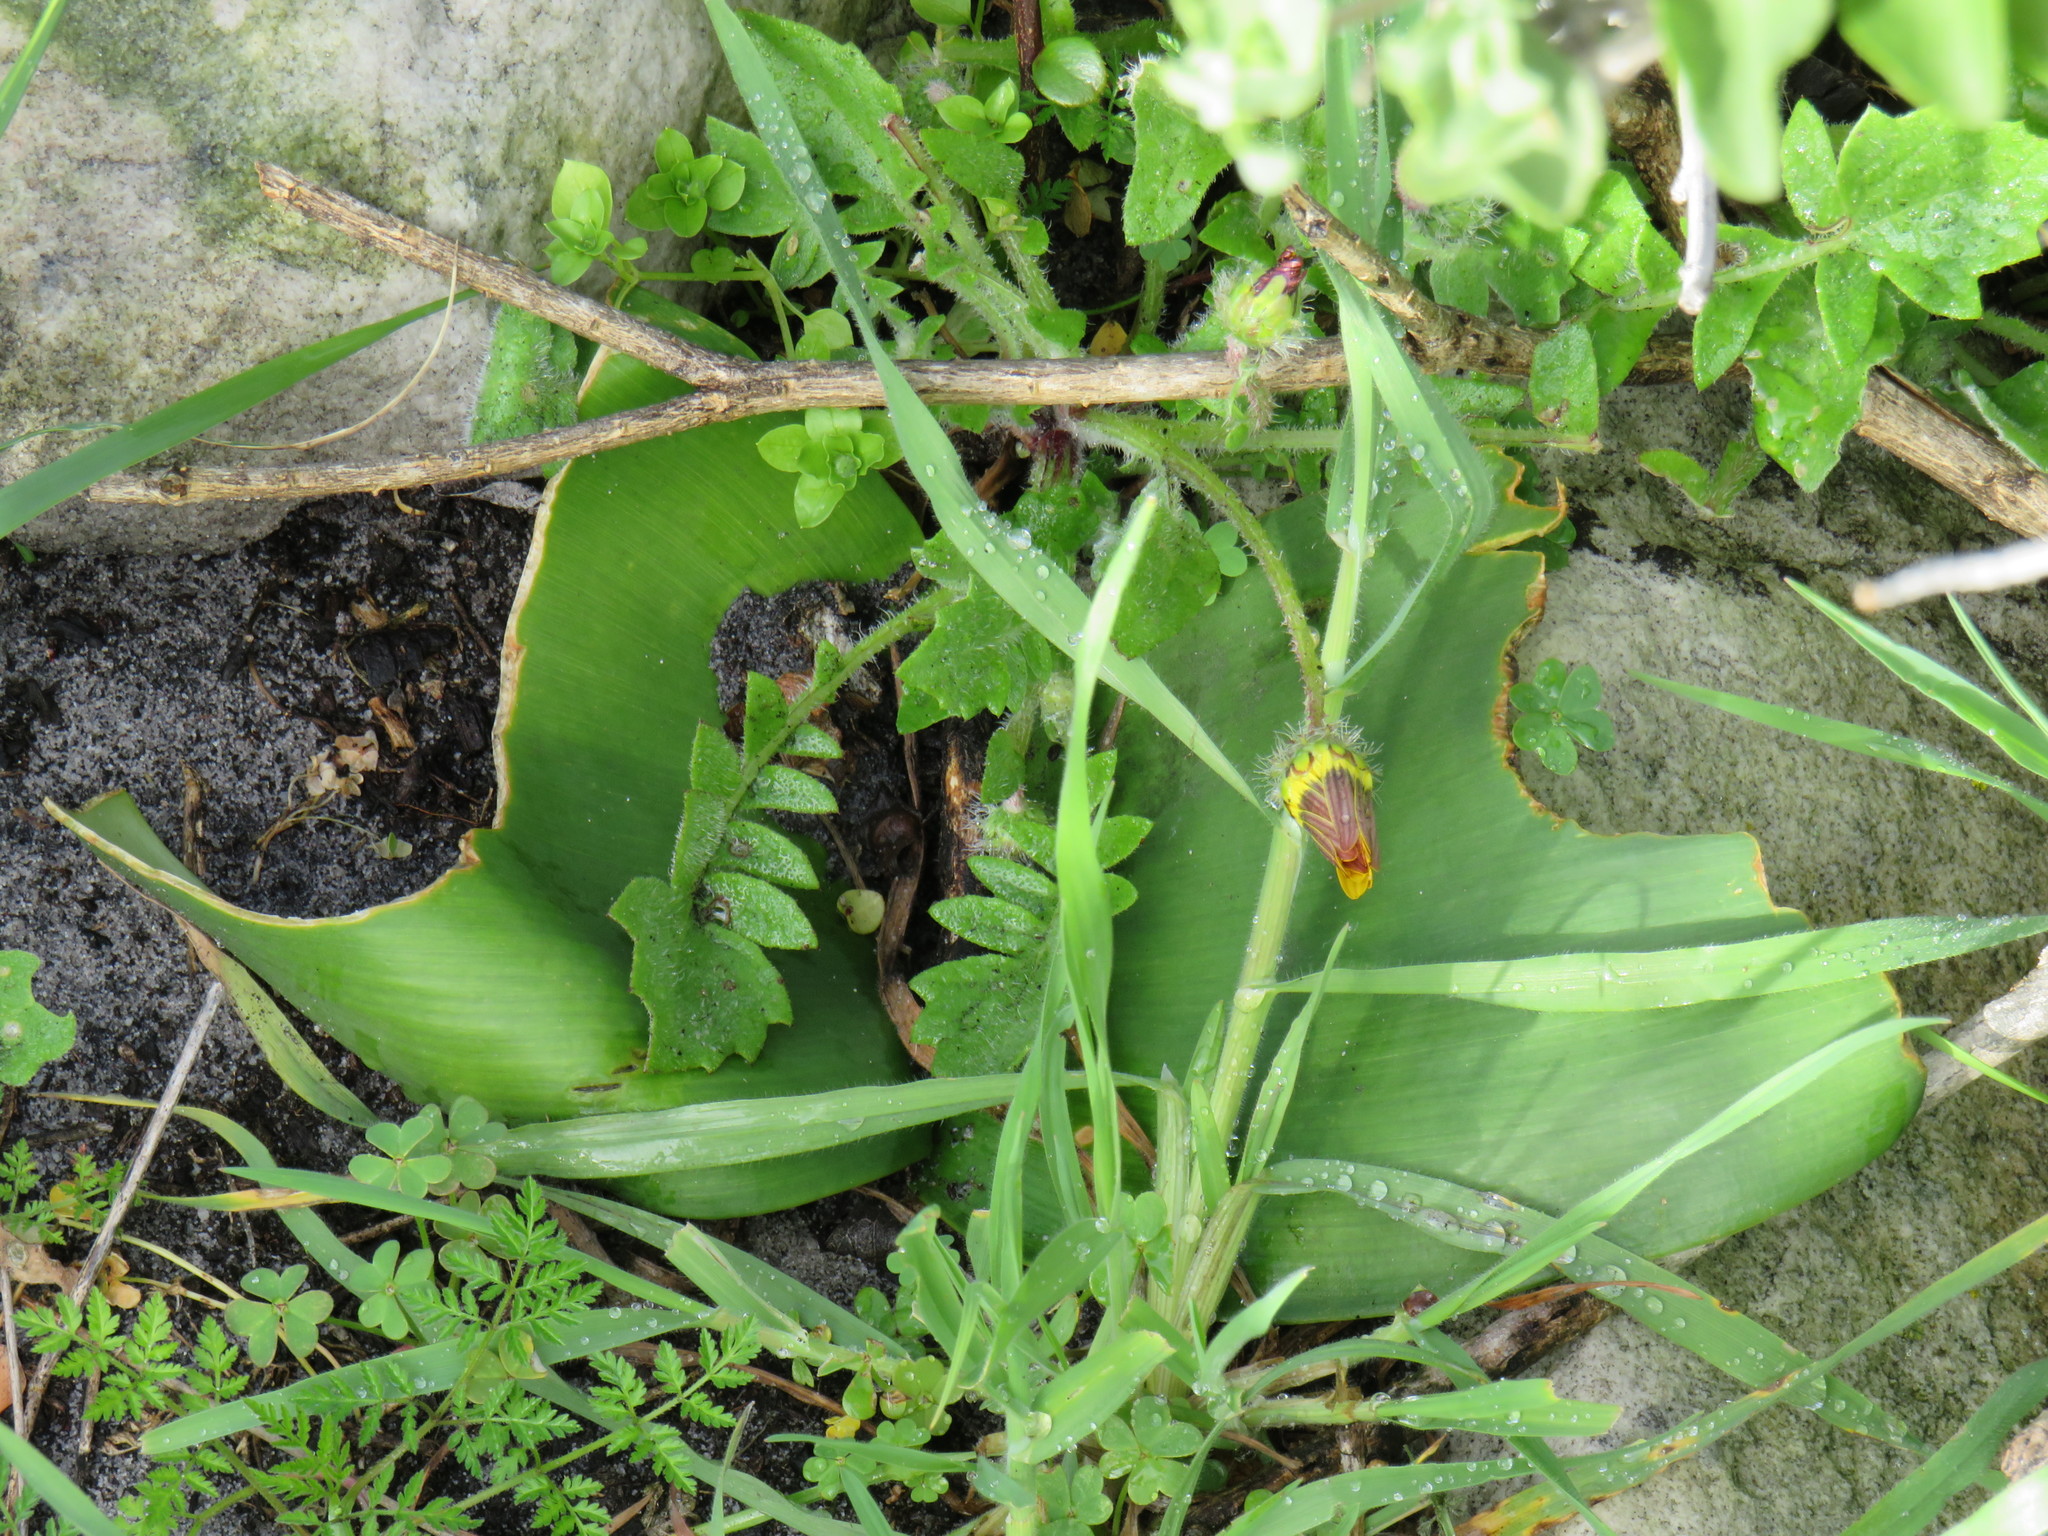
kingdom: Plantae
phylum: Tracheophyta
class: Liliopsida
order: Asparagales
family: Amaryllidaceae
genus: Haemanthus
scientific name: Haemanthus coccineus
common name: Cape-tulip
